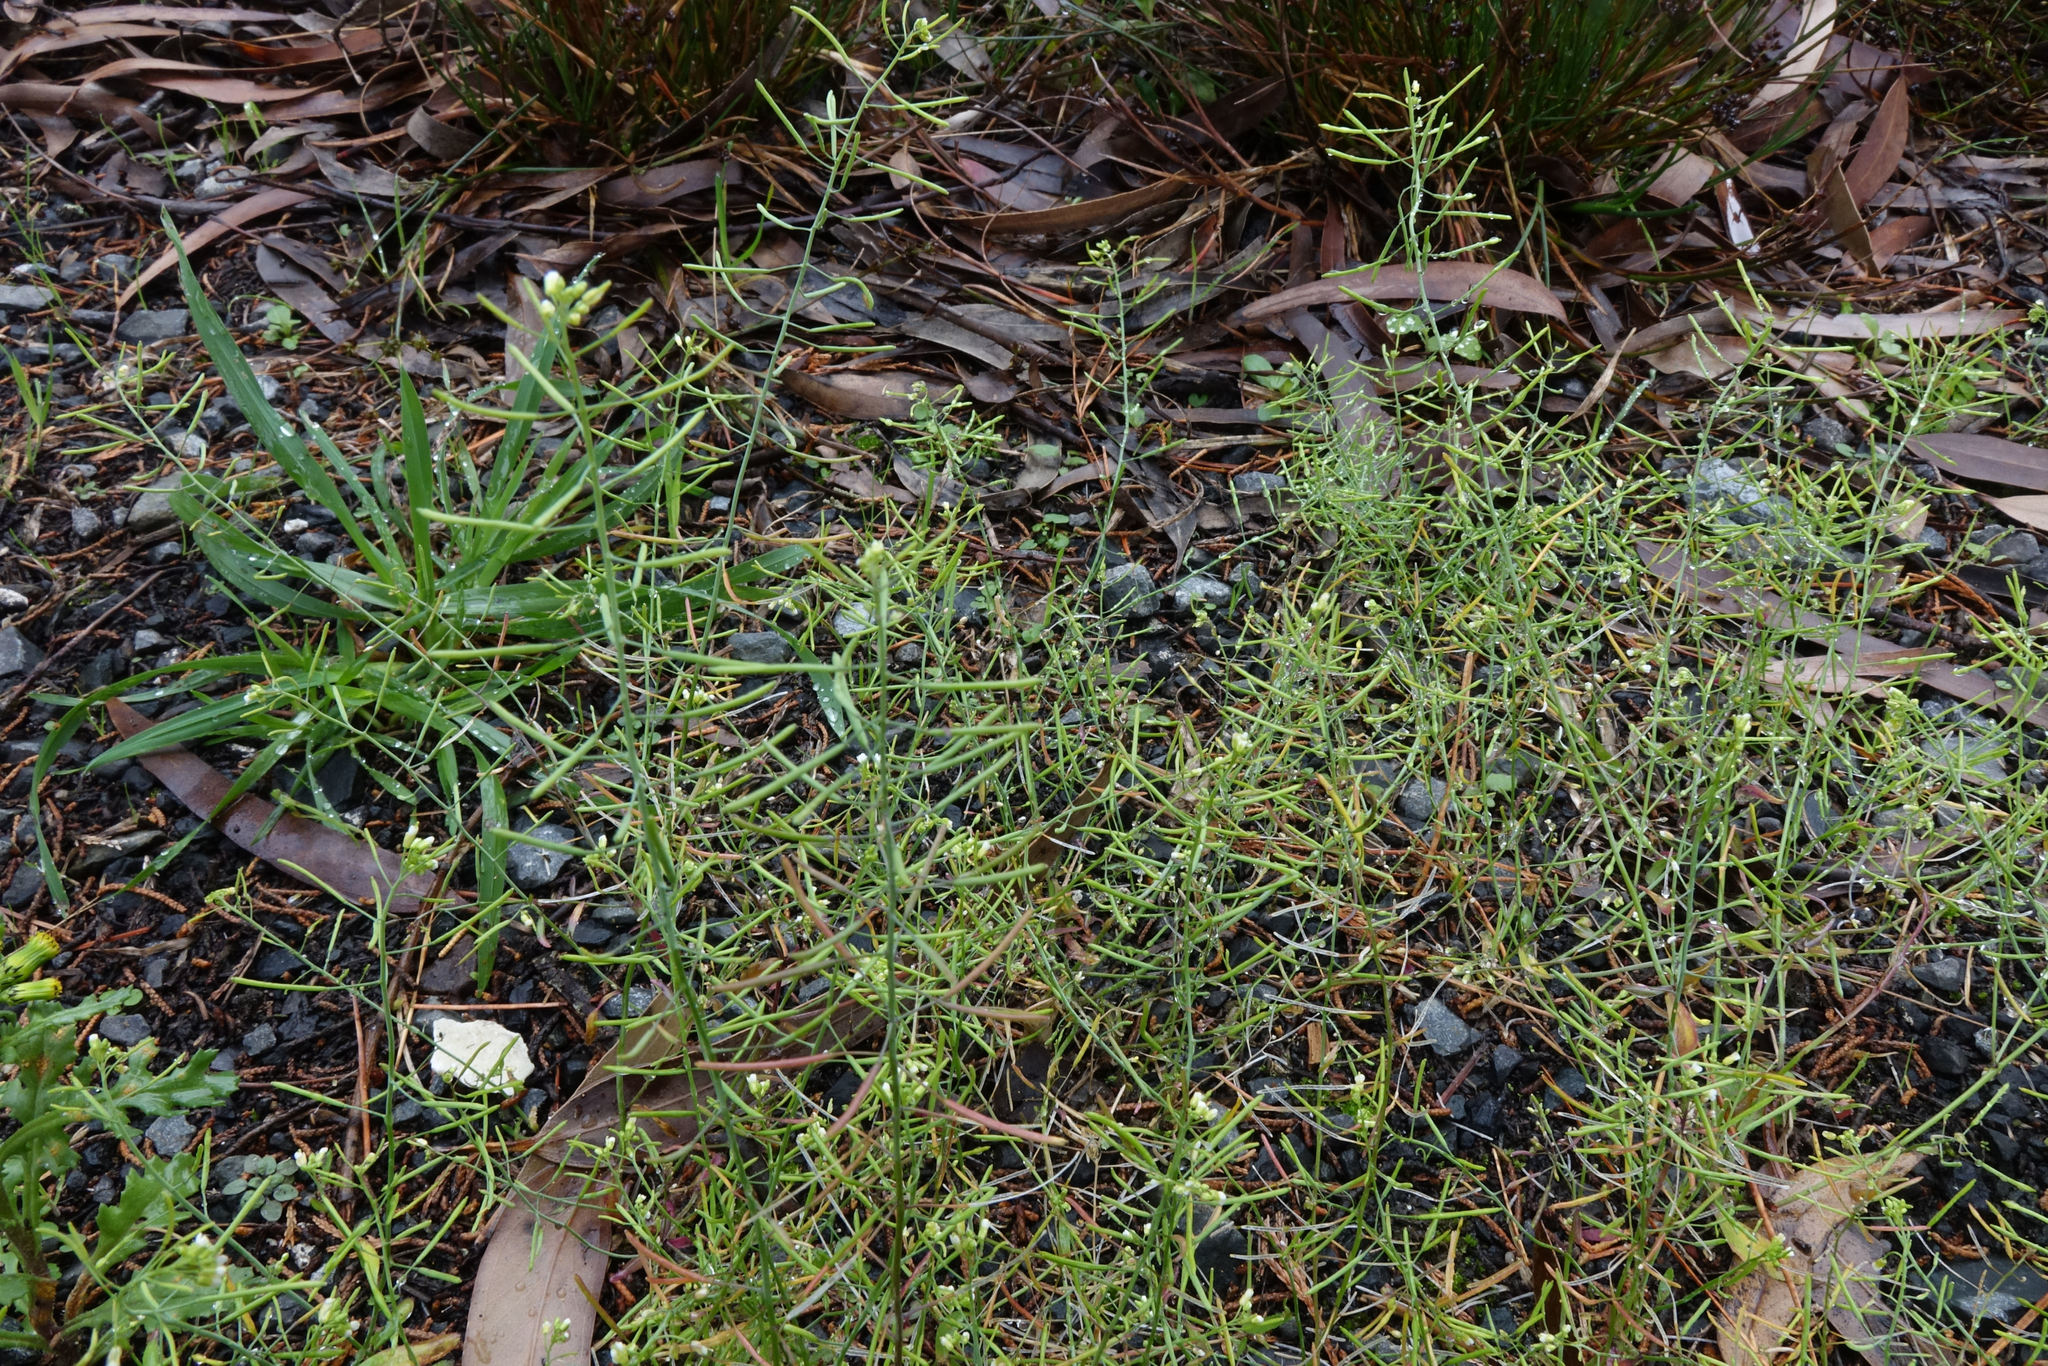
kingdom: Plantae
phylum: Tracheophyta
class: Magnoliopsida
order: Brassicales
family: Brassicaceae
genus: Arabidopsis
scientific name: Arabidopsis thaliana
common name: Thale cress
